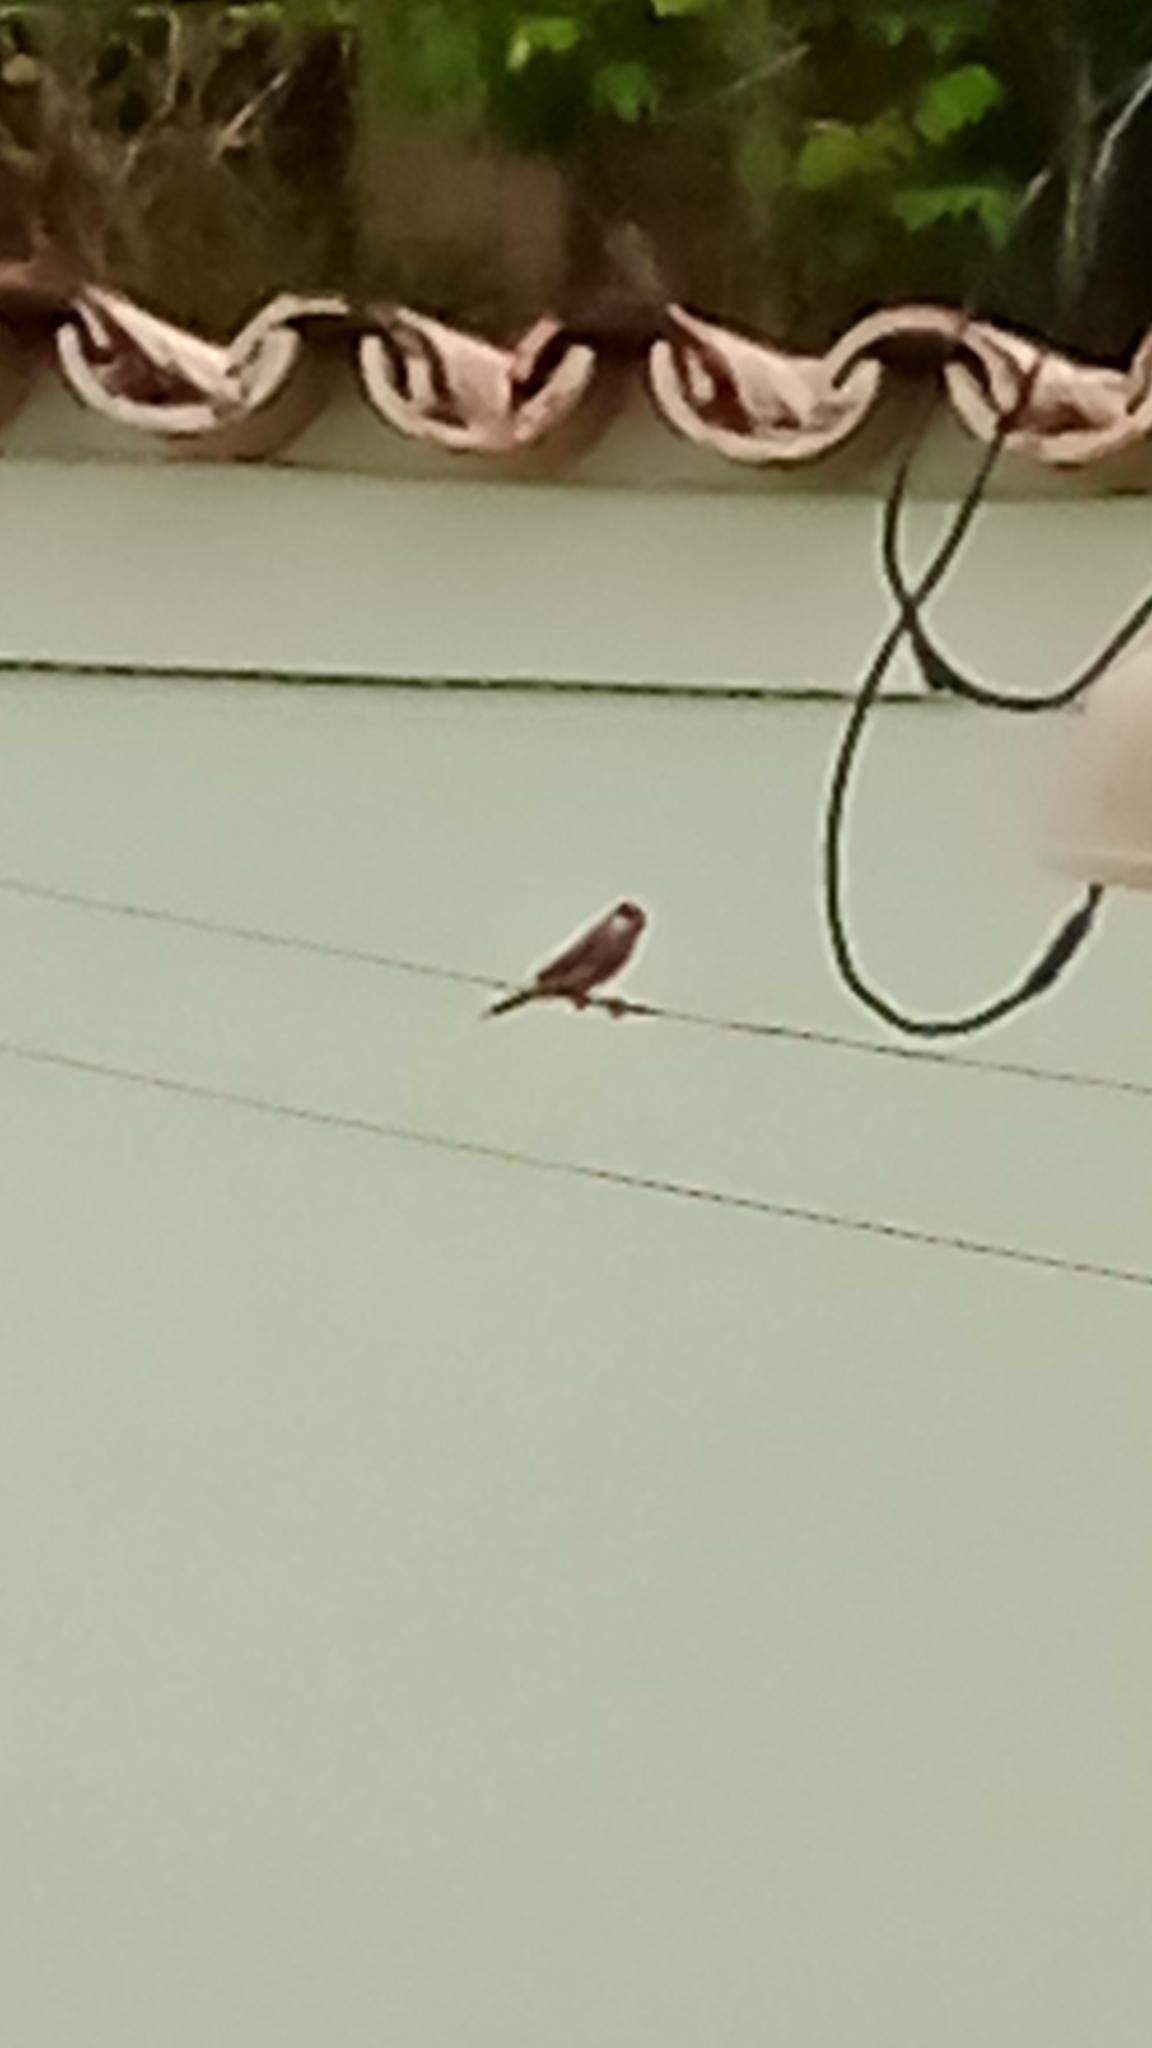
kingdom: Animalia
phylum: Chordata
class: Aves
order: Passeriformes
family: Estrildidae
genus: Estrilda
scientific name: Estrilda astrild
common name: Common waxbill
